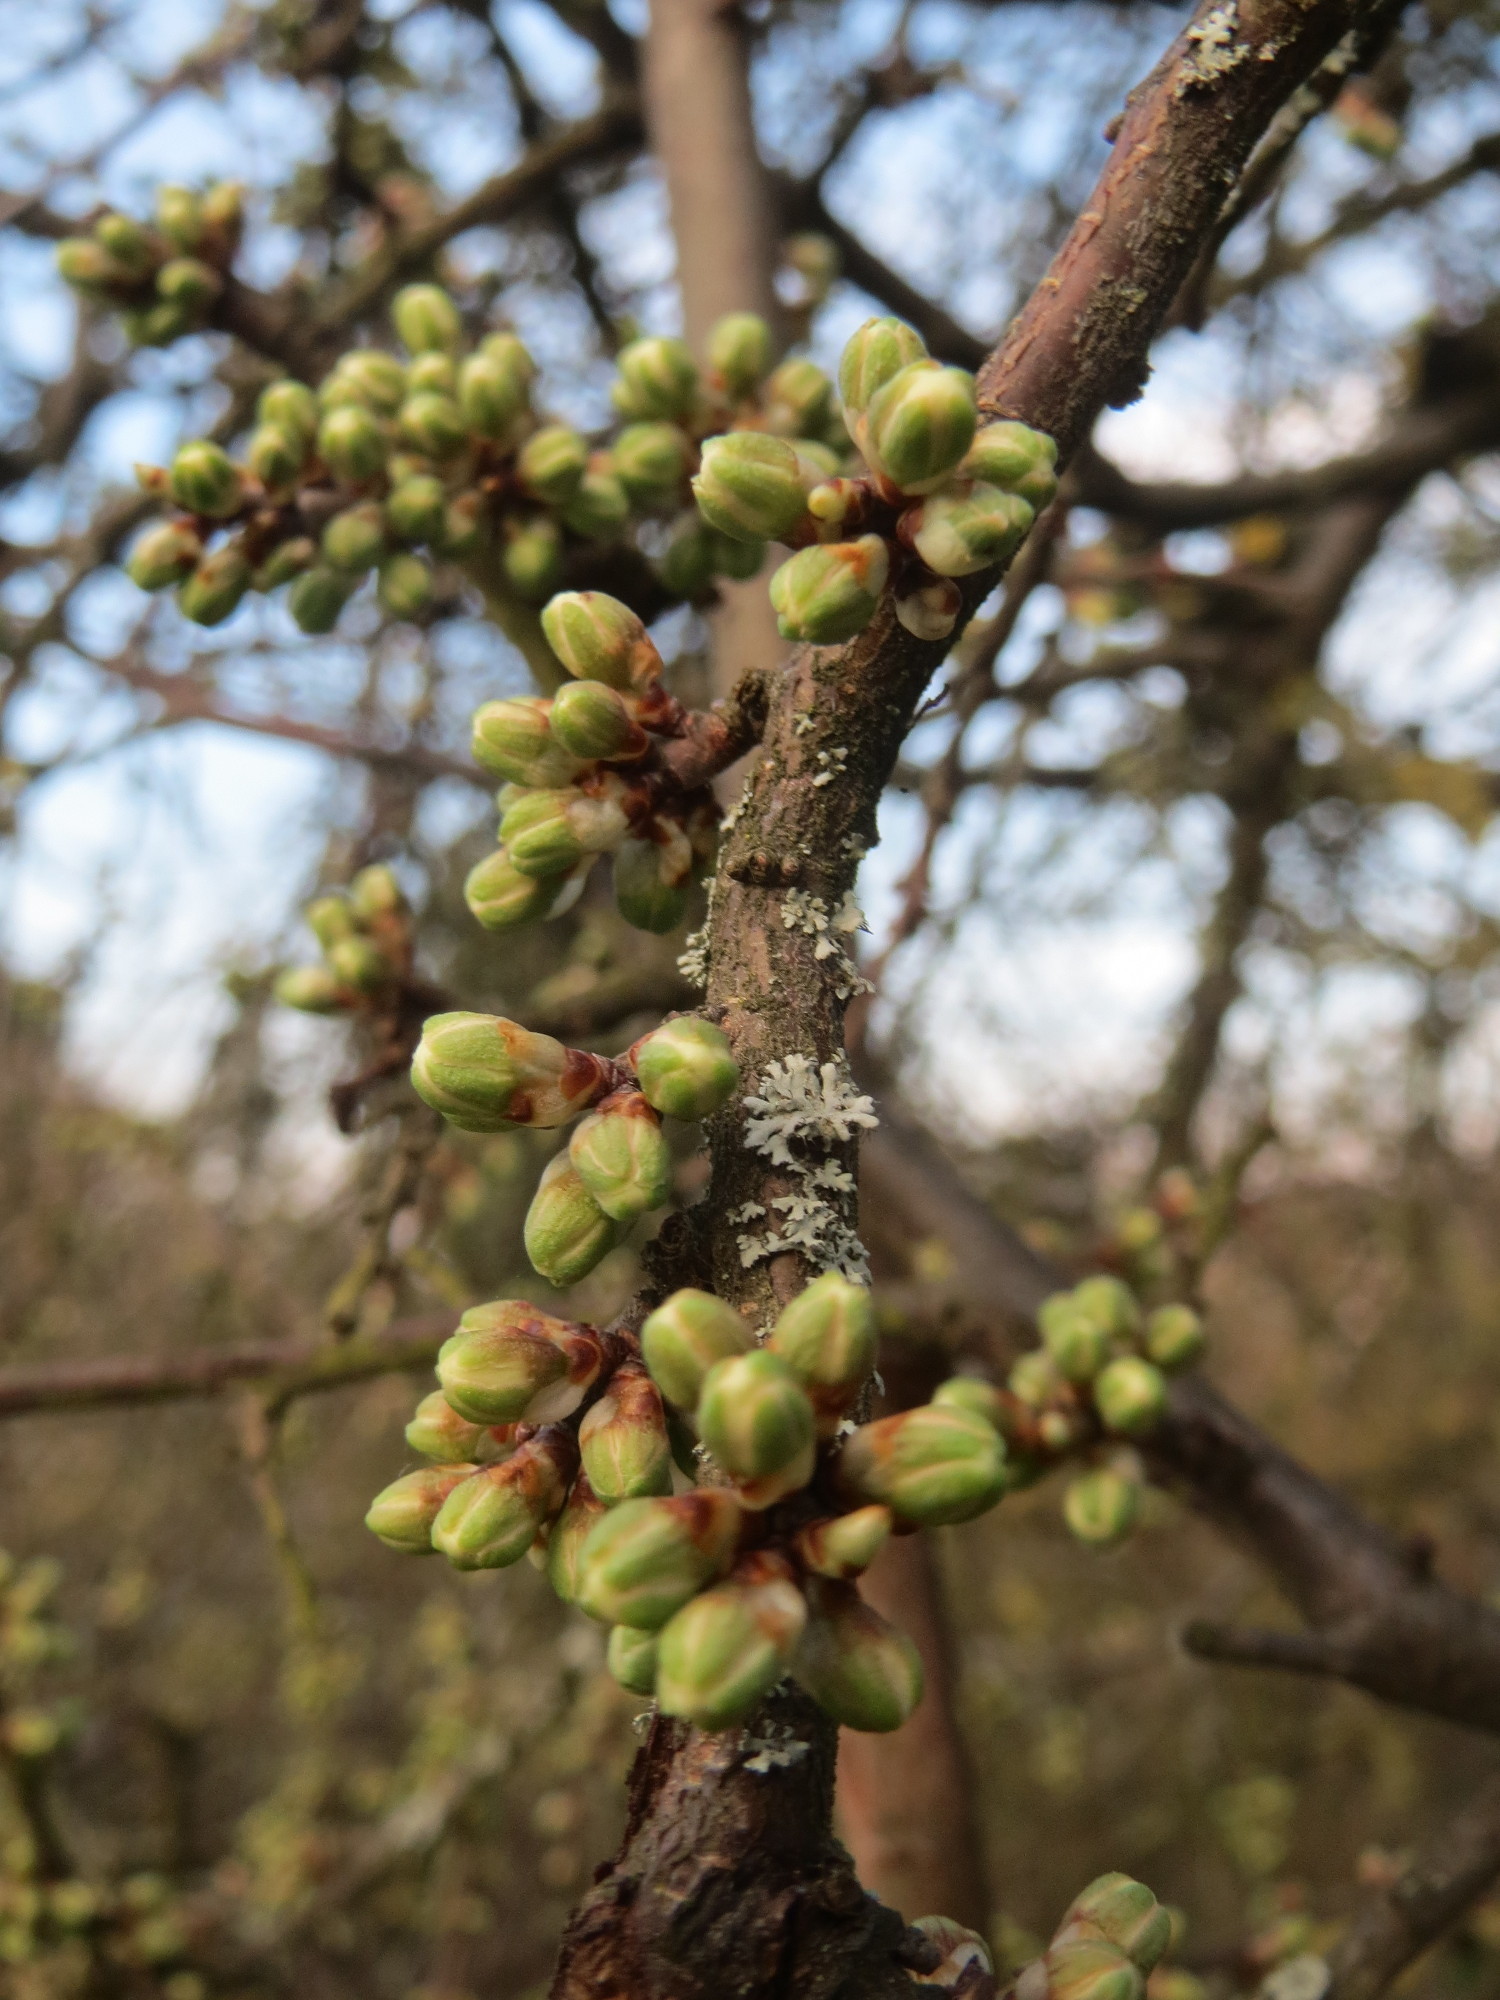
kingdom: Plantae
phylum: Tracheophyta
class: Magnoliopsida
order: Rosales
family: Rosaceae
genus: Prunus
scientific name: Prunus spinosa
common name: Blackthorn
